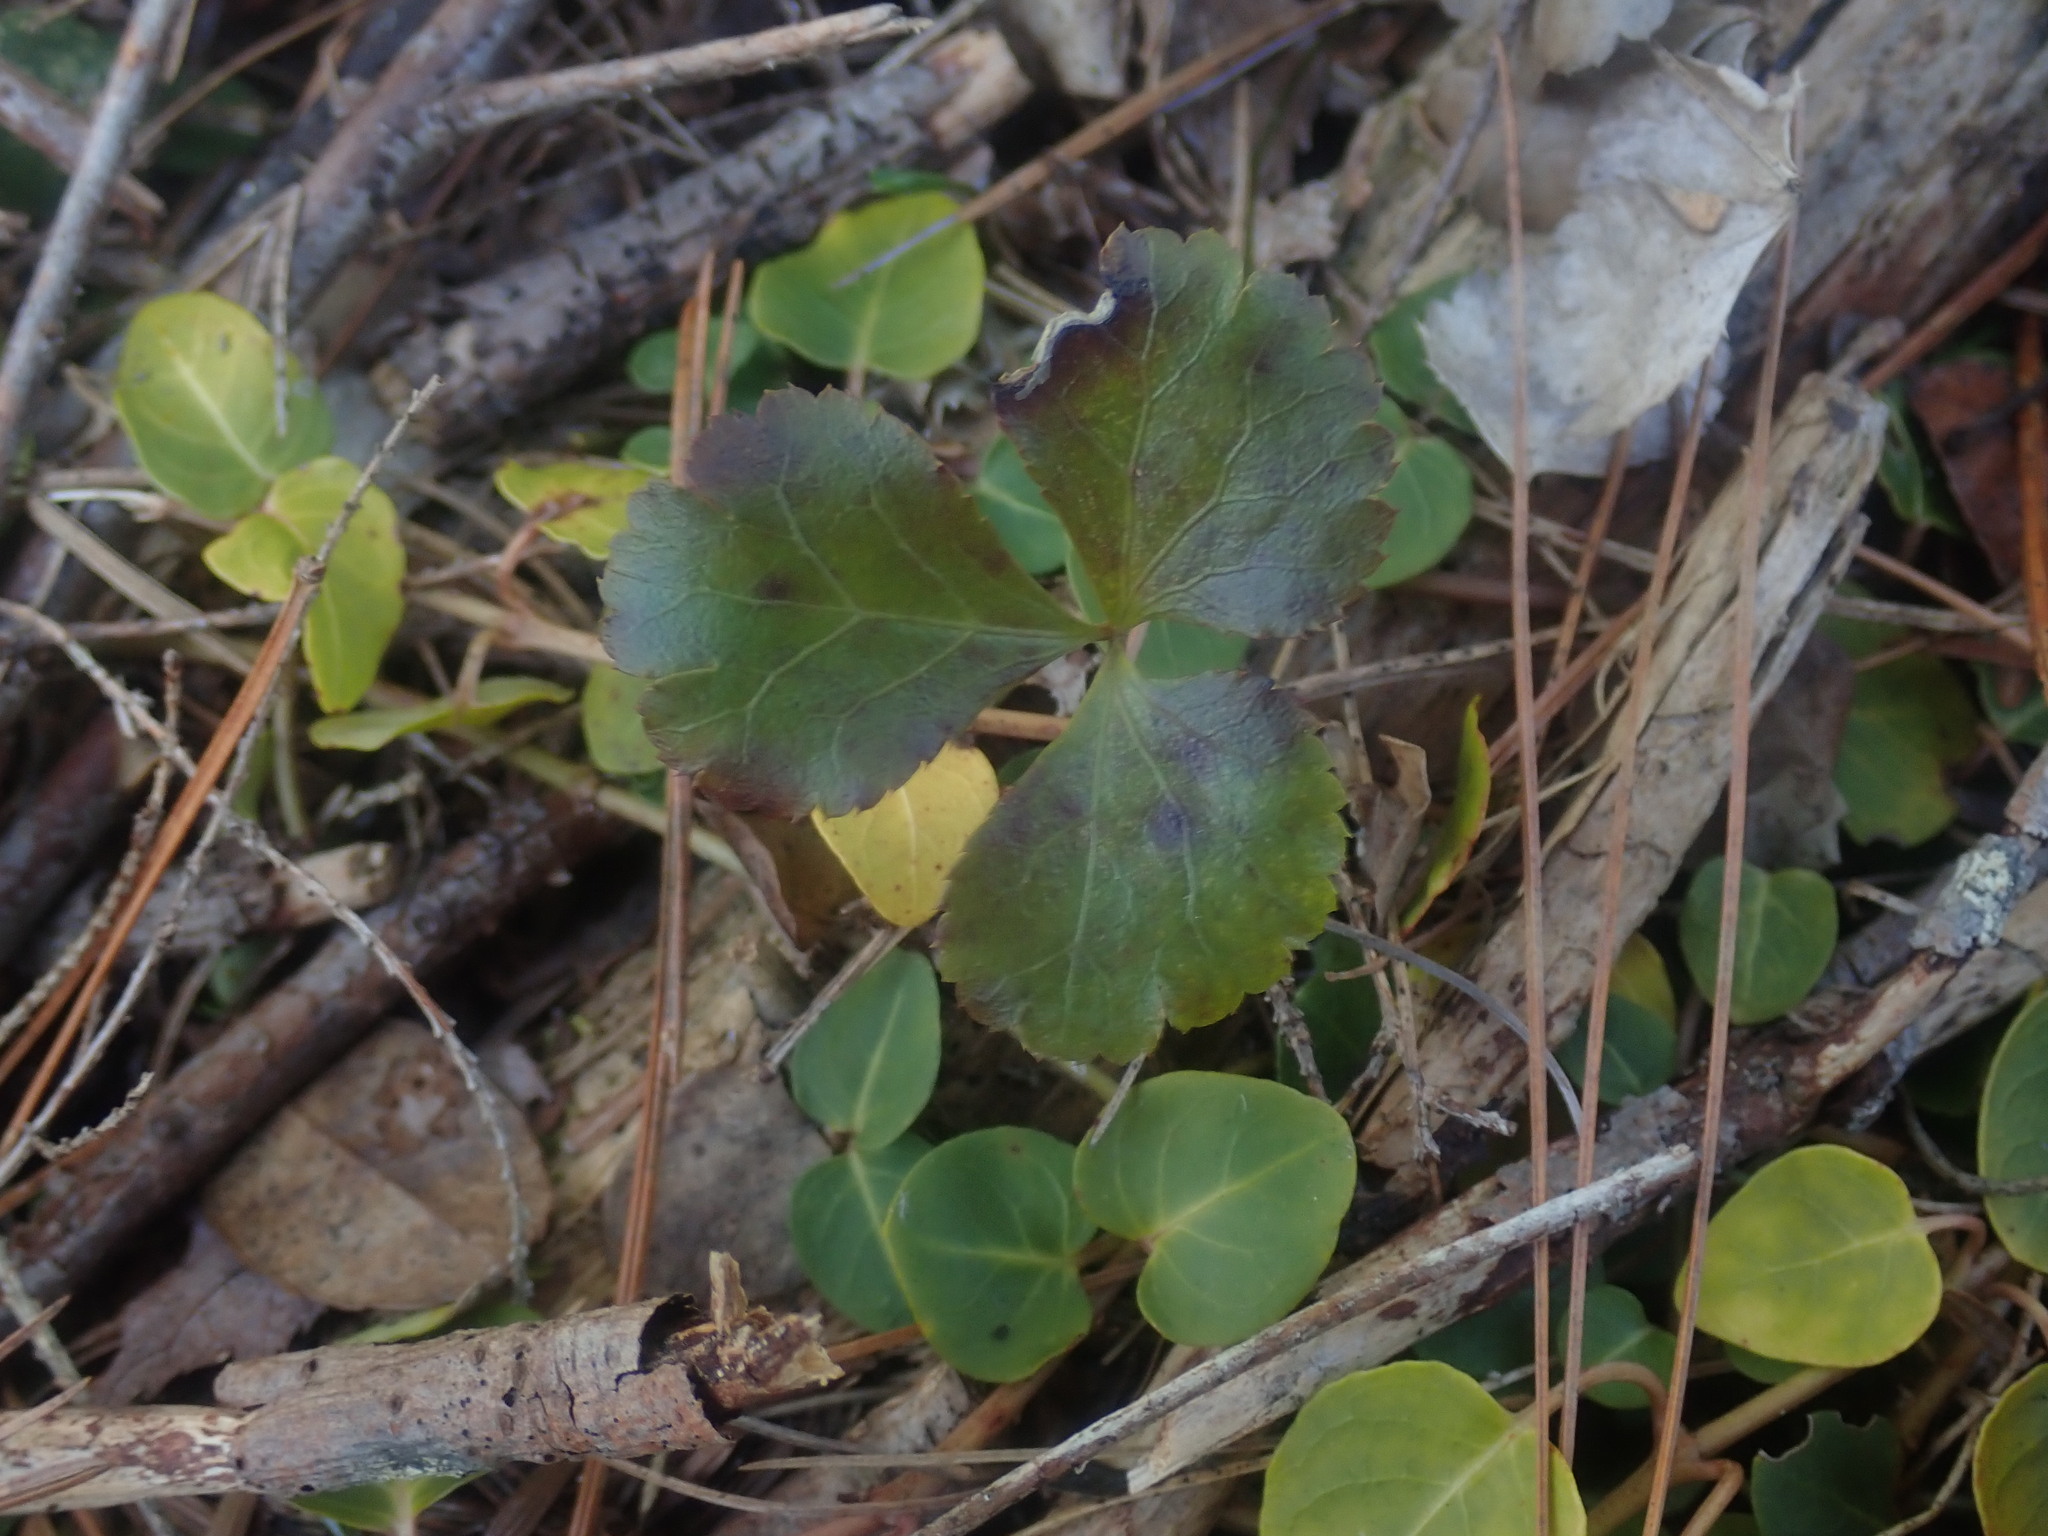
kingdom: Plantae
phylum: Tracheophyta
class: Magnoliopsida
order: Ranunculales
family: Ranunculaceae
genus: Coptis
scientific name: Coptis trifolia
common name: Canker-root
